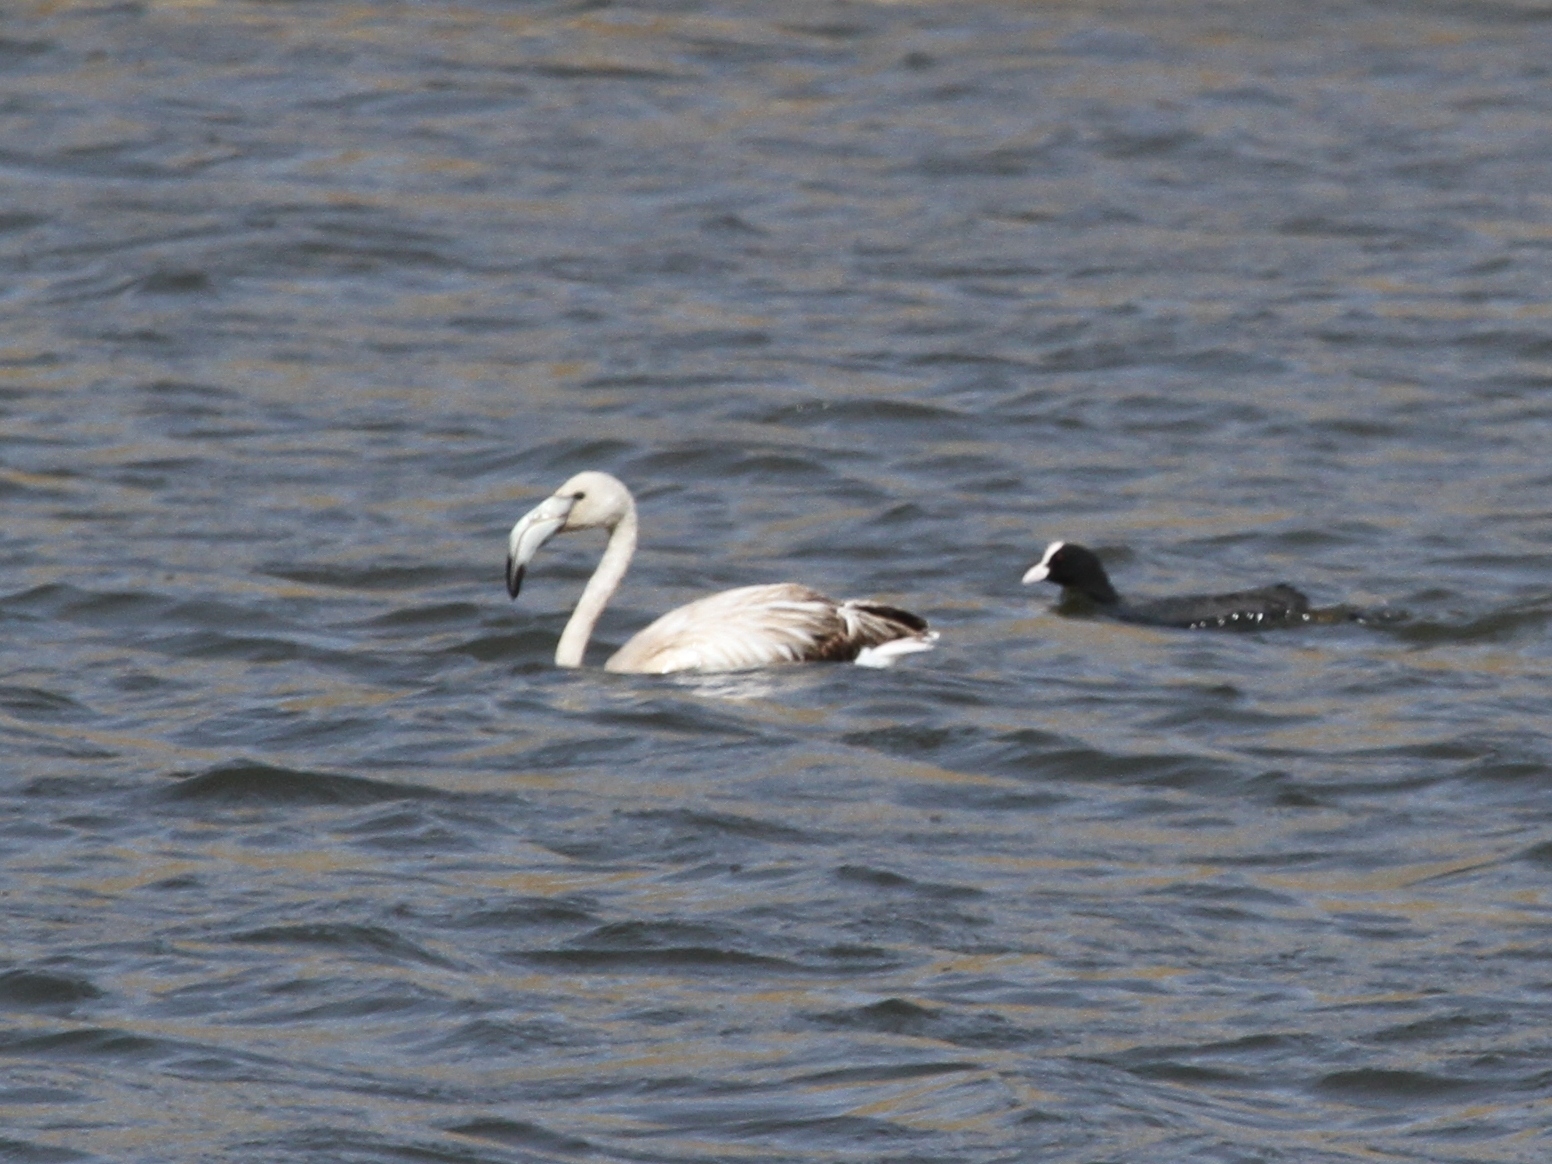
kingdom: Animalia
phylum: Chordata
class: Aves
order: Phoenicopteriformes
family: Phoenicopteridae
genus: Phoenicopterus
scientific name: Phoenicopterus roseus
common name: Greater flamingo
